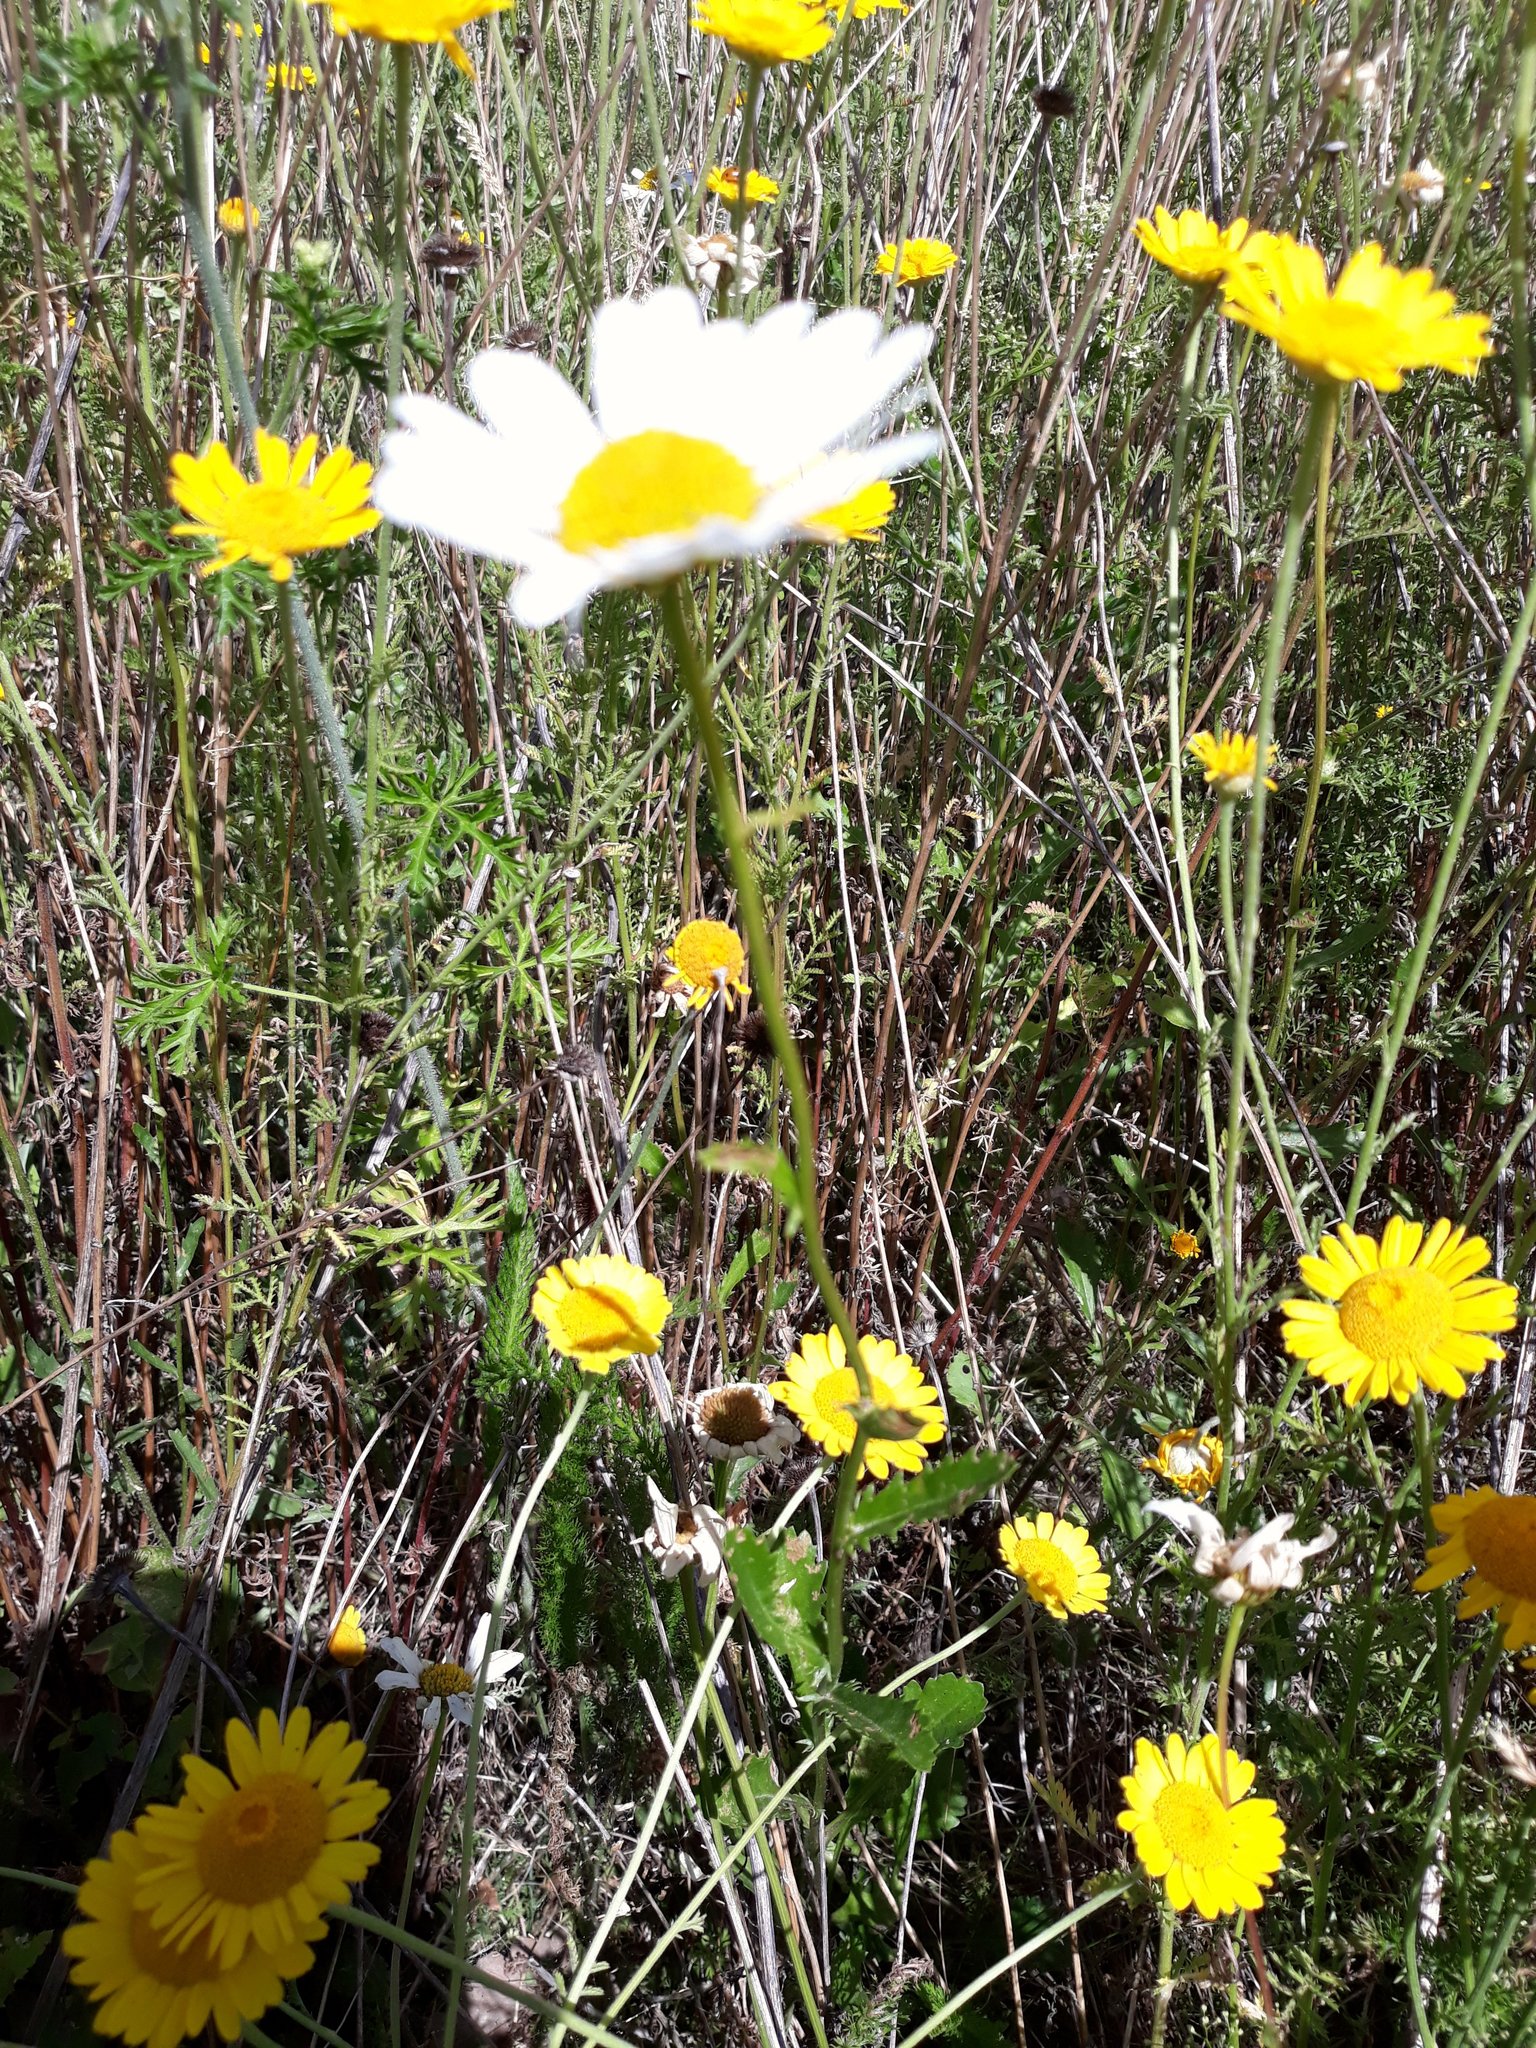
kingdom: Plantae
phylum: Tracheophyta
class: Magnoliopsida
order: Asterales
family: Asteraceae
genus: Leucanthemum
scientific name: Leucanthemum vulgare
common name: Oxeye daisy
